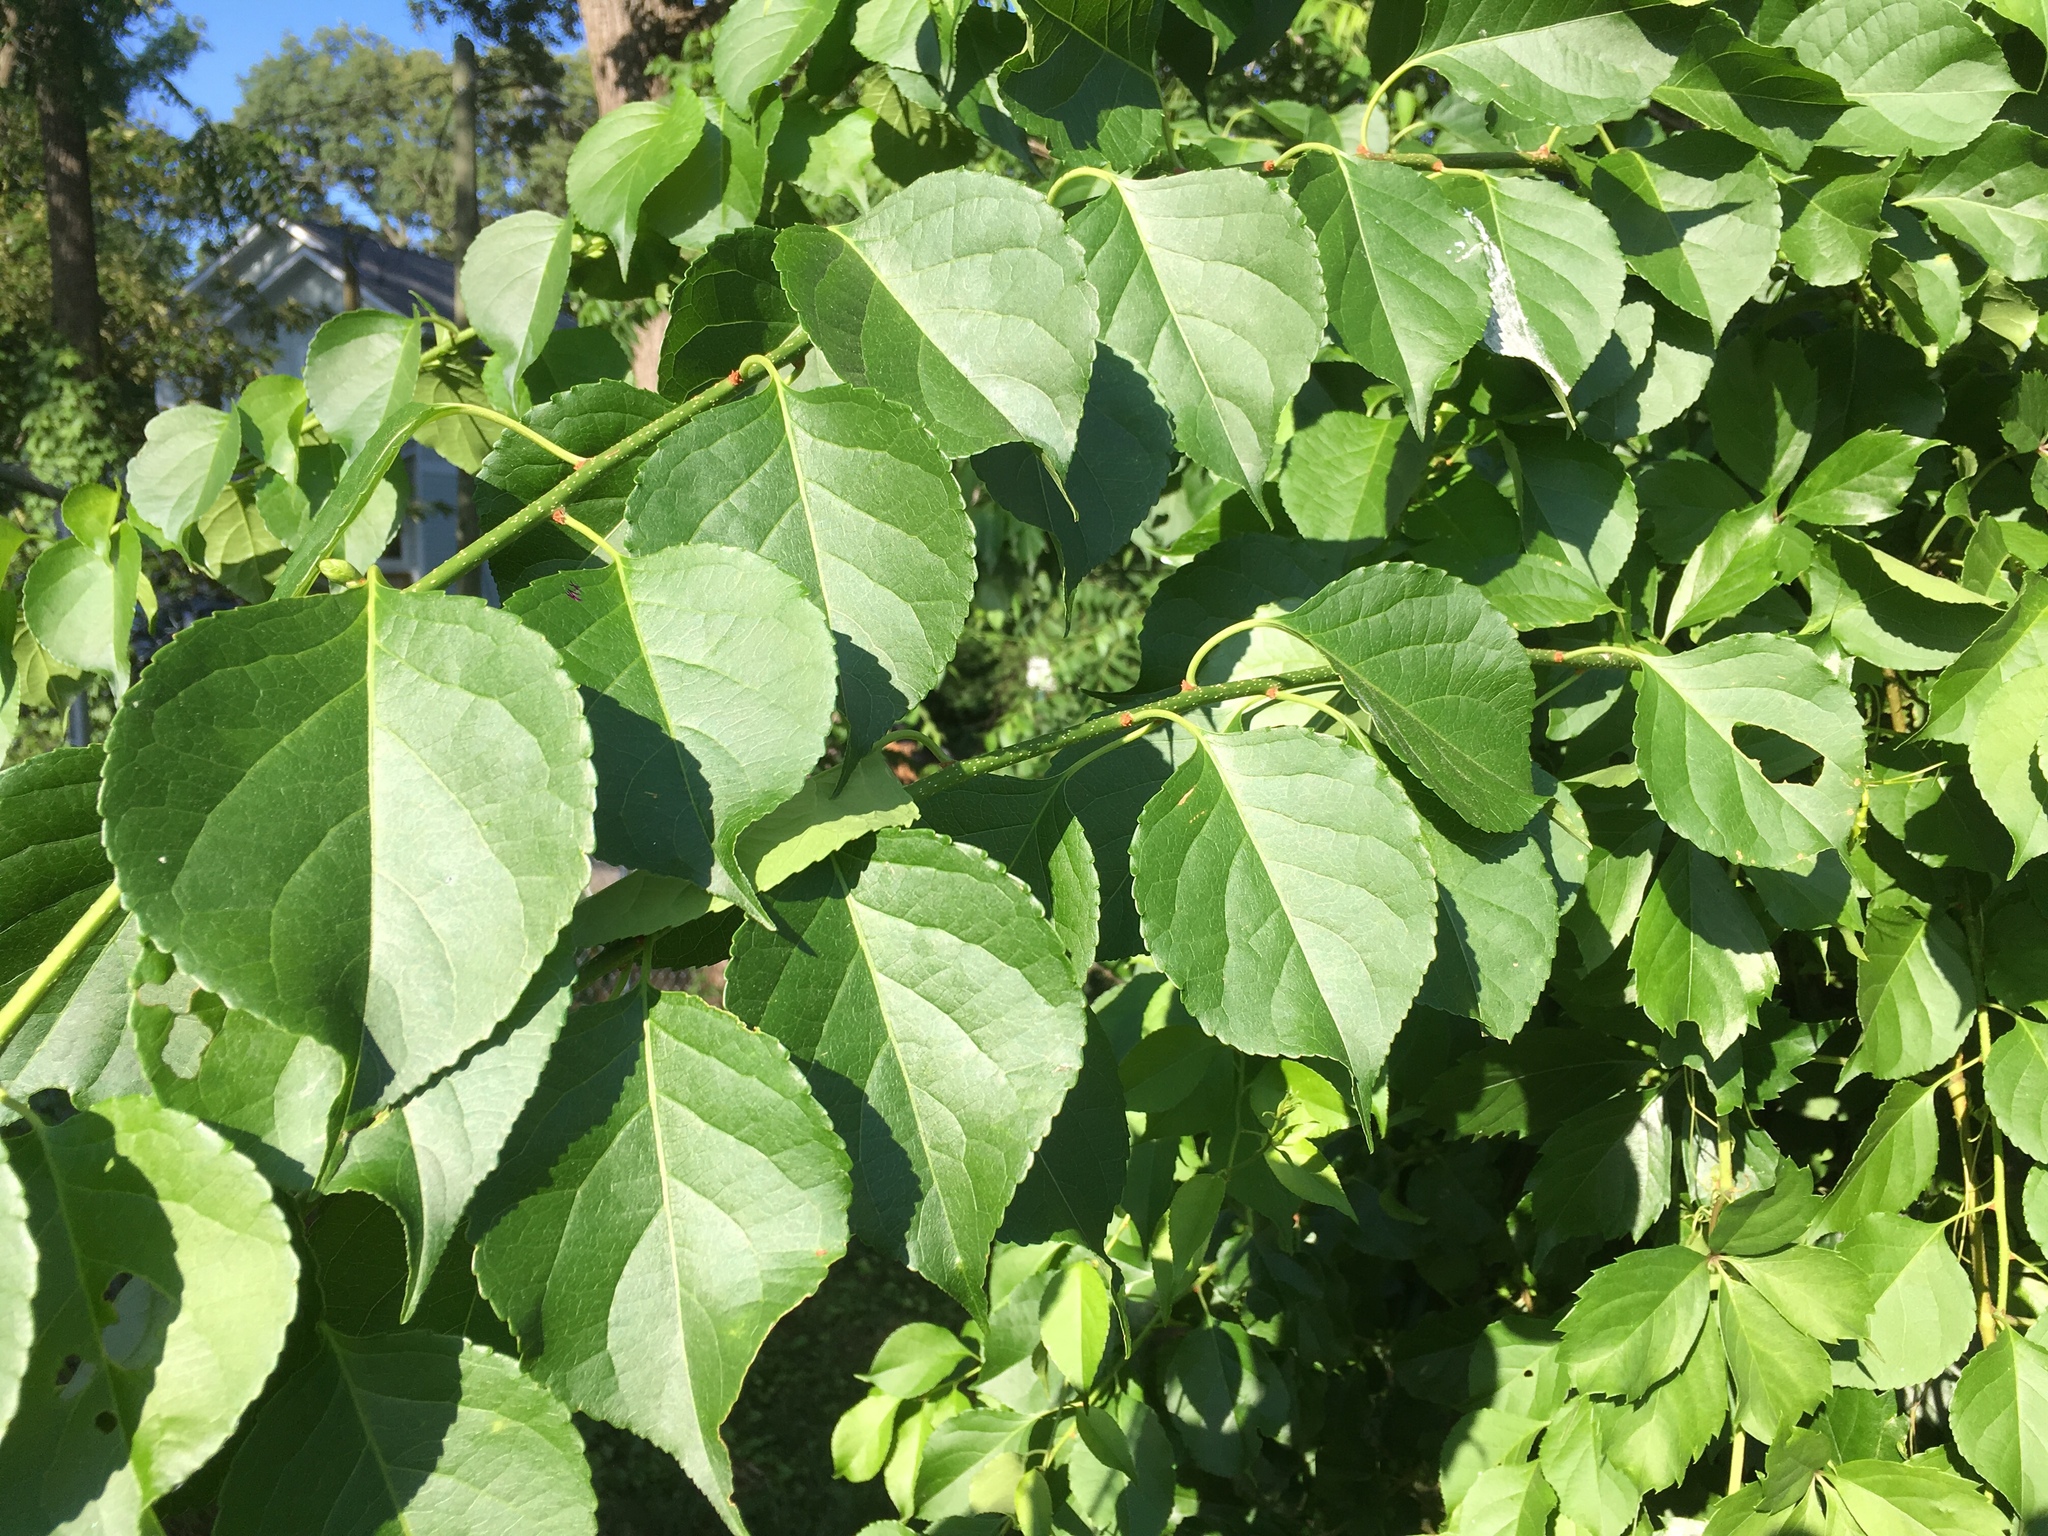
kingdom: Plantae
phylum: Tracheophyta
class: Magnoliopsida
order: Celastrales
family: Celastraceae
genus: Celastrus
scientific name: Celastrus orbiculatus
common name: Oriental bittersweet
